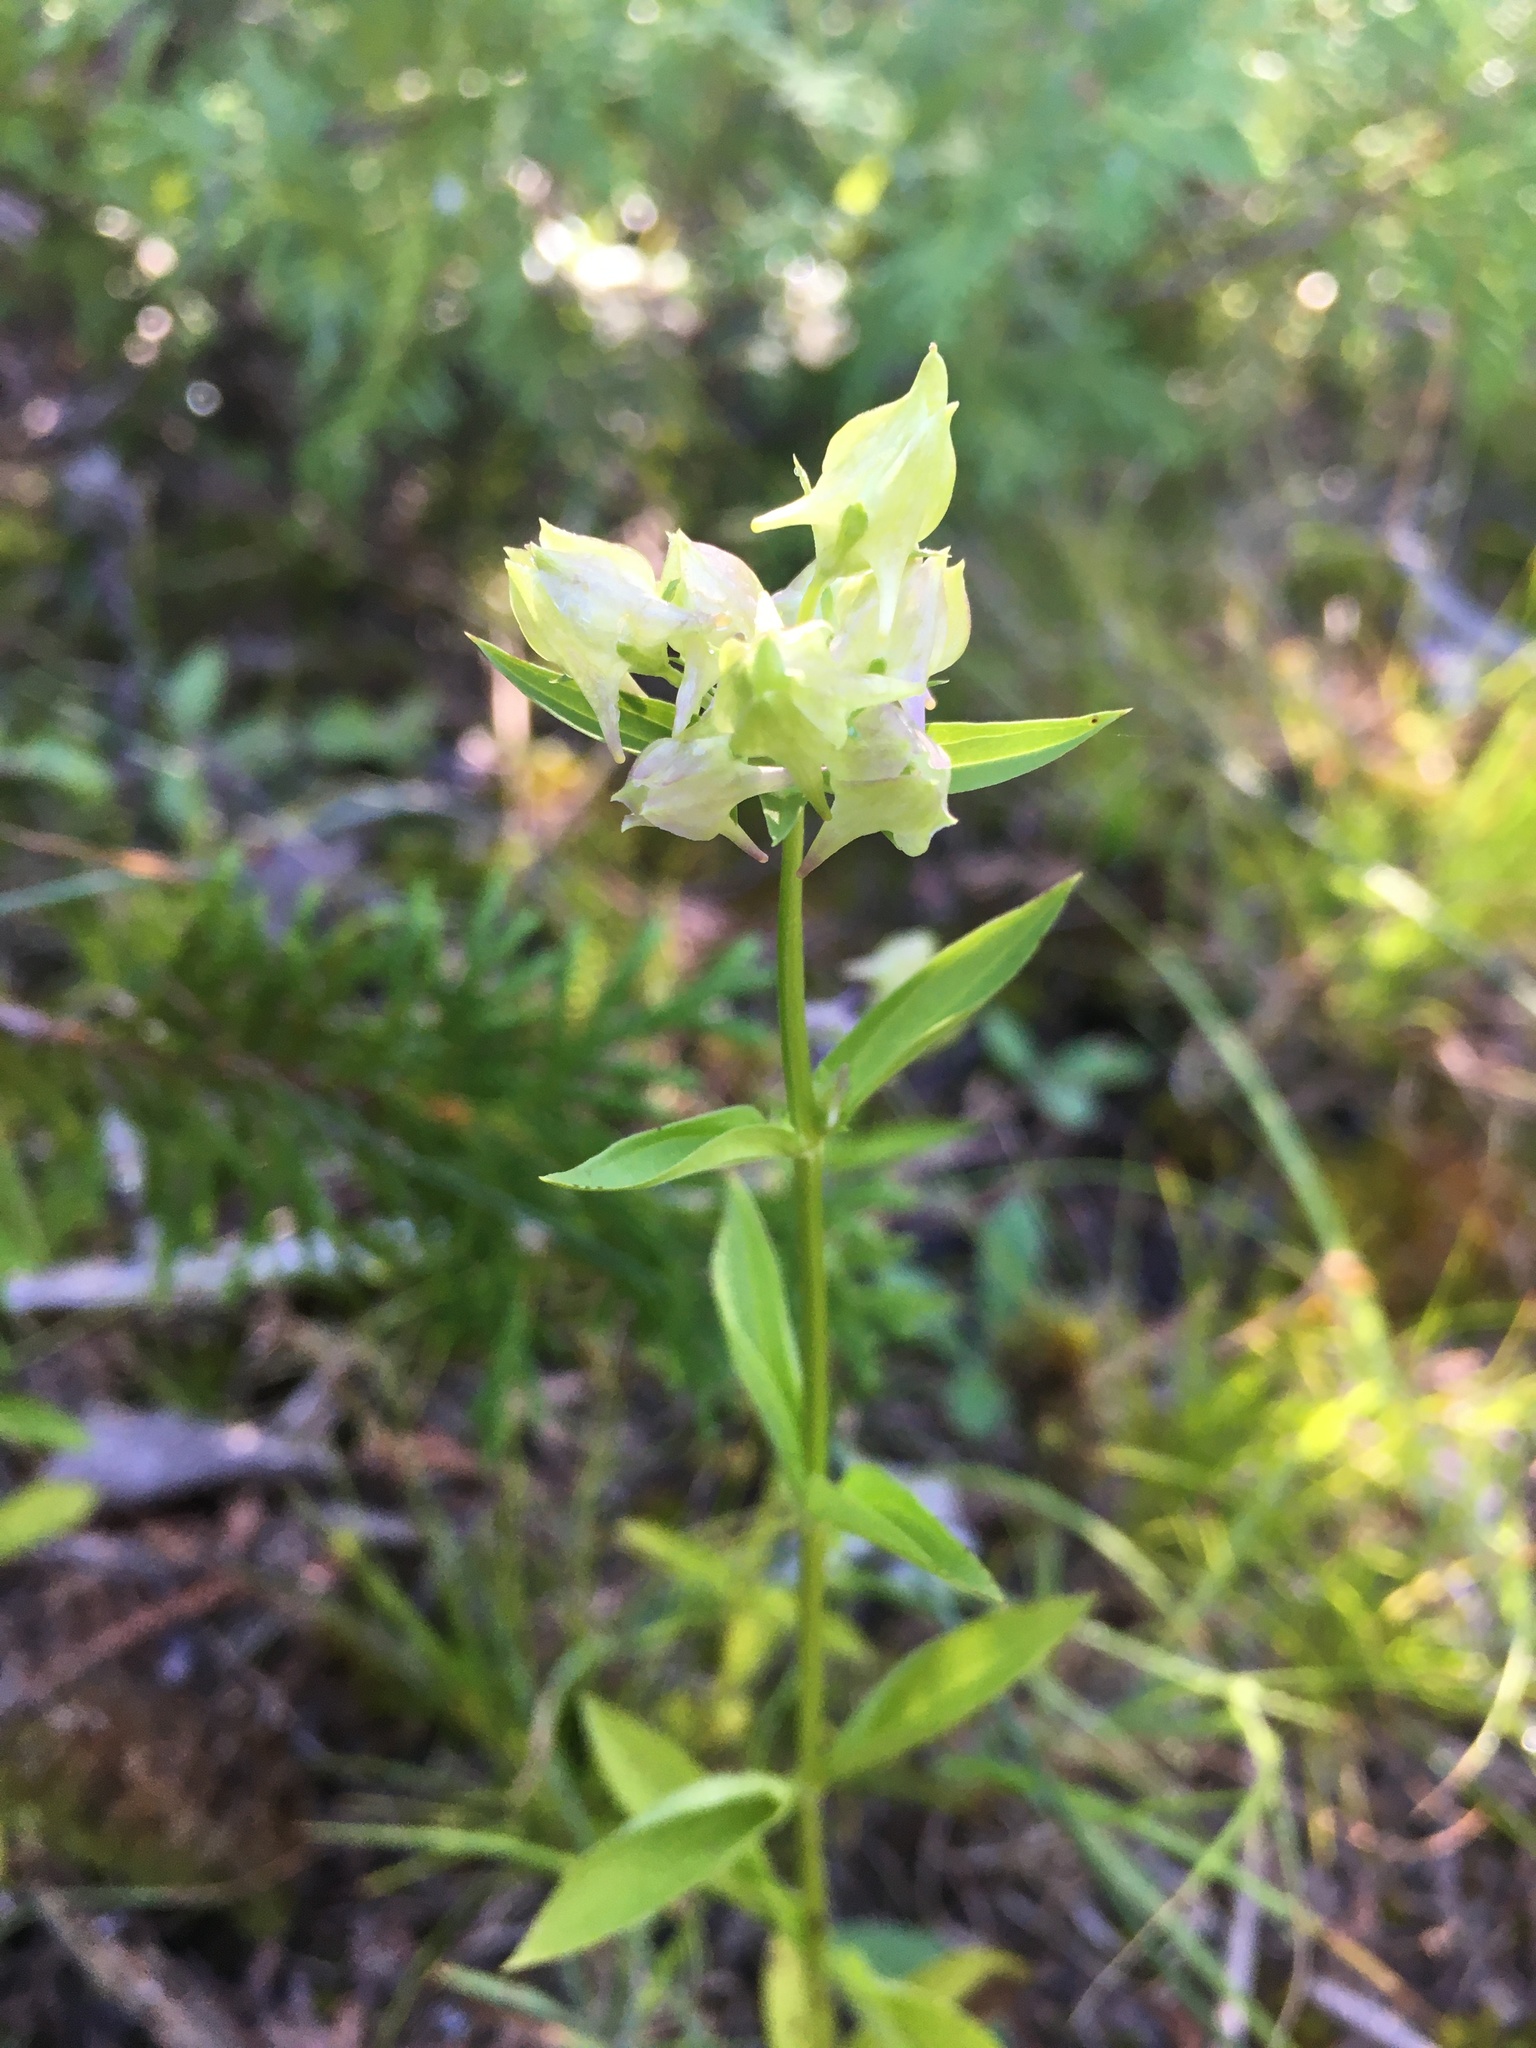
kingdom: Plantae
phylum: Tracheophyta
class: Magnoliopsida
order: Gentianales
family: Gentianaceae
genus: Halenia
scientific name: Halenia deflexa
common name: American spurred gentian
